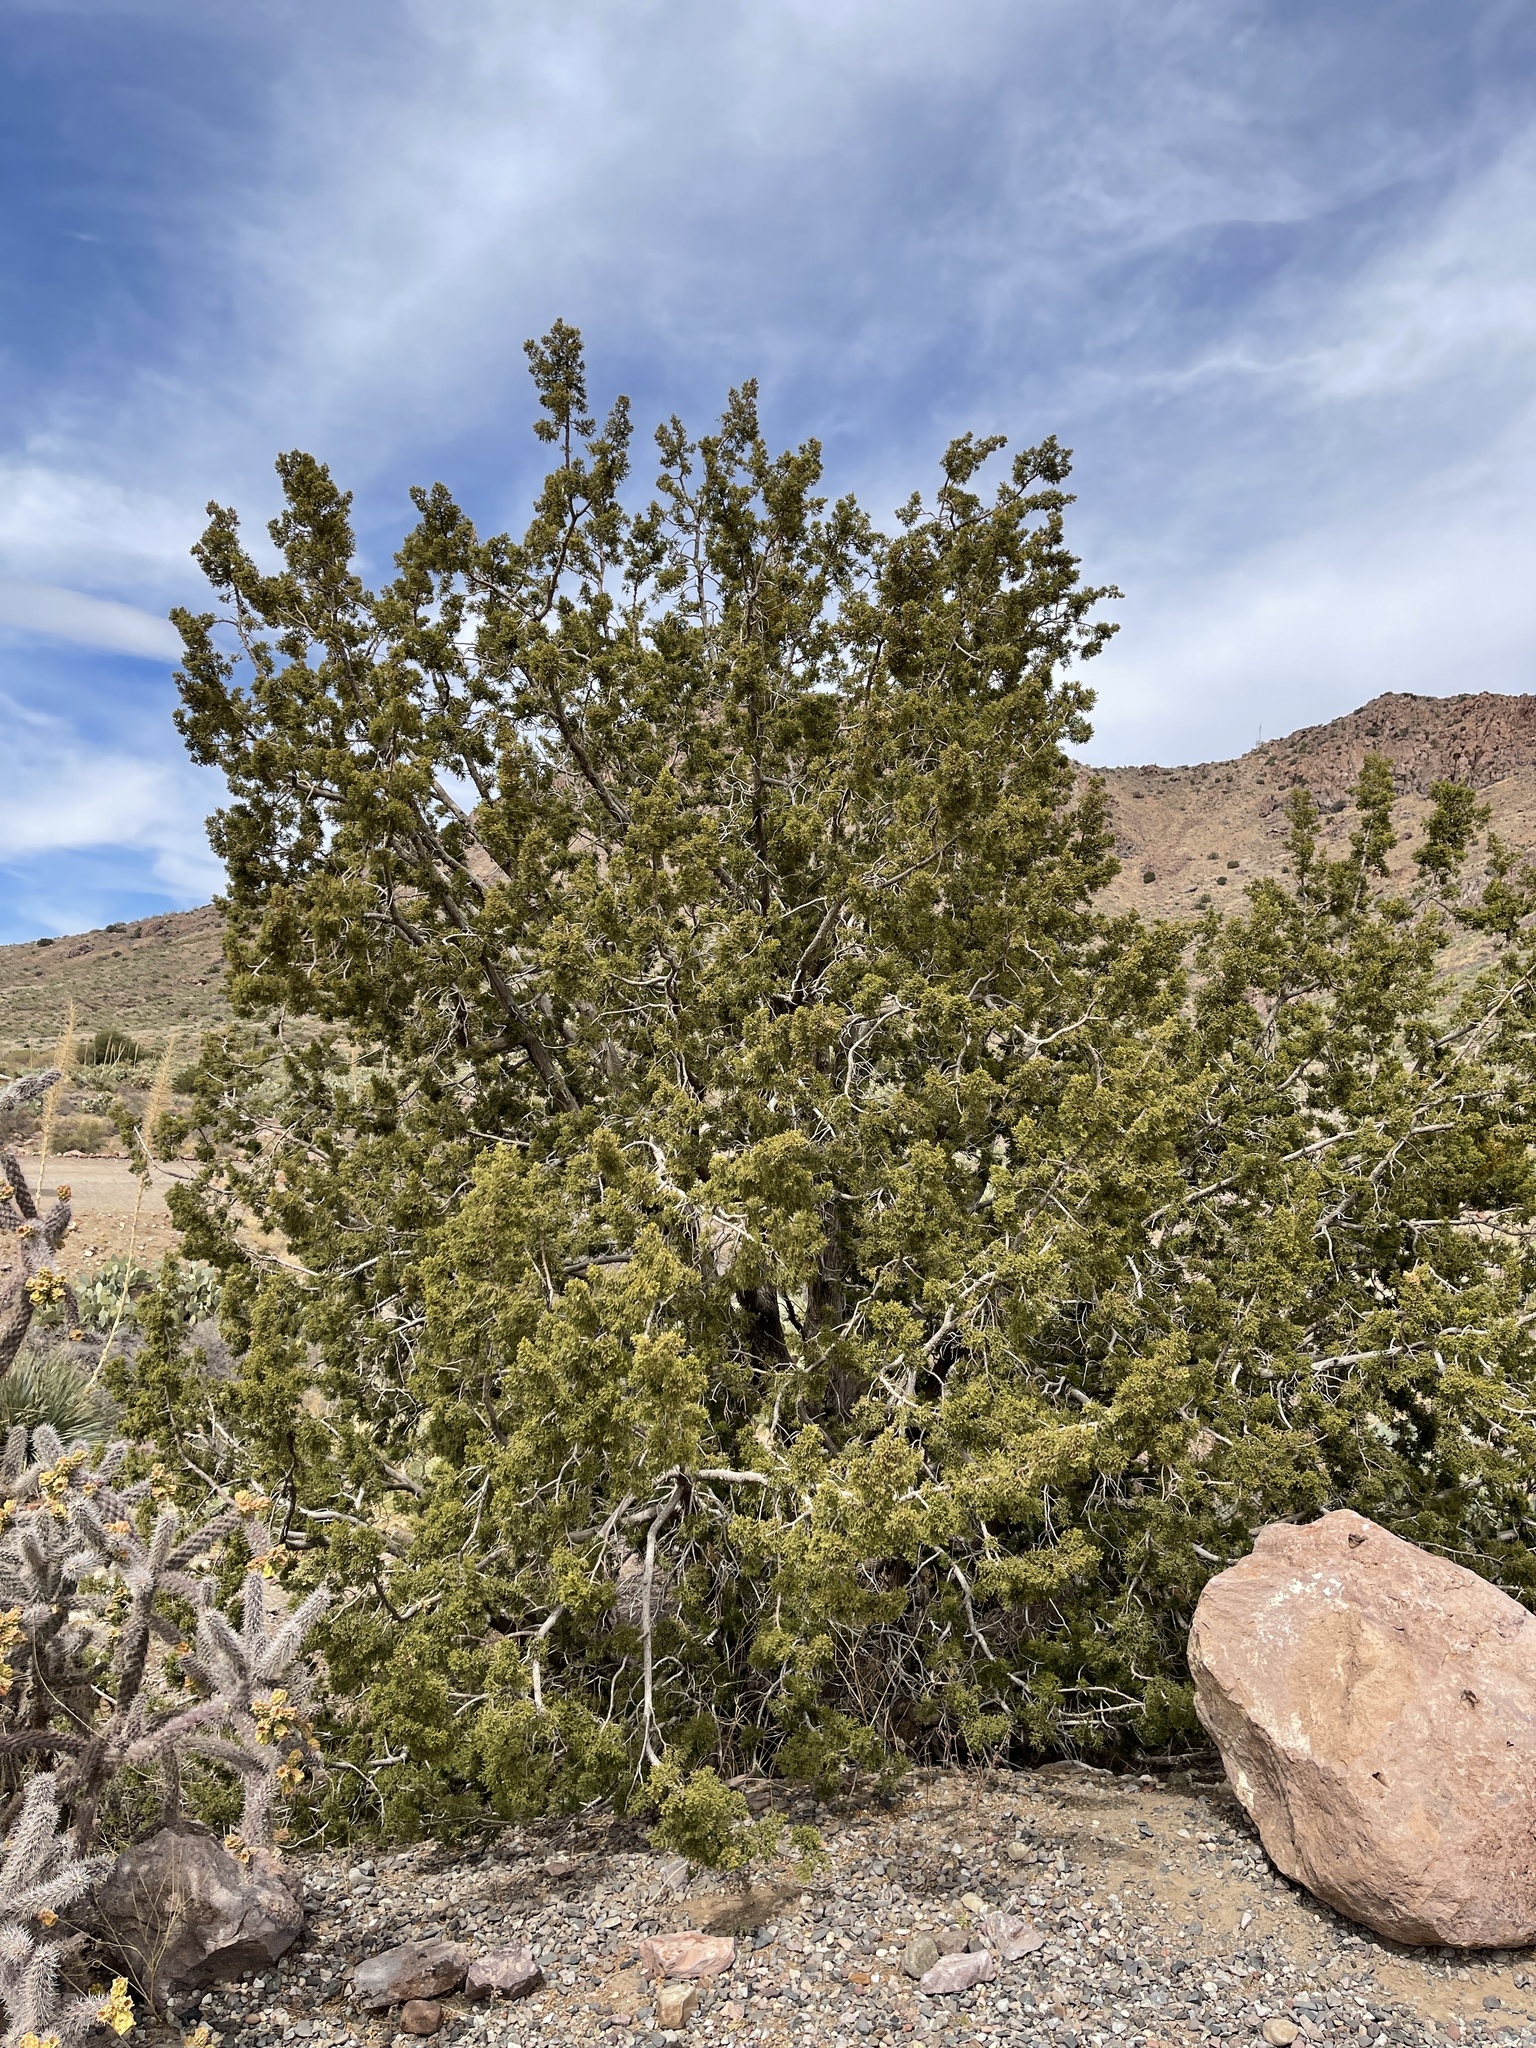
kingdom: Plantae
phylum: Tracheophyta
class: Pinopsida
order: Pinales
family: Cupressaceae
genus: Juniperus
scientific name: Juniperus monosperma
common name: One-seed juniper
